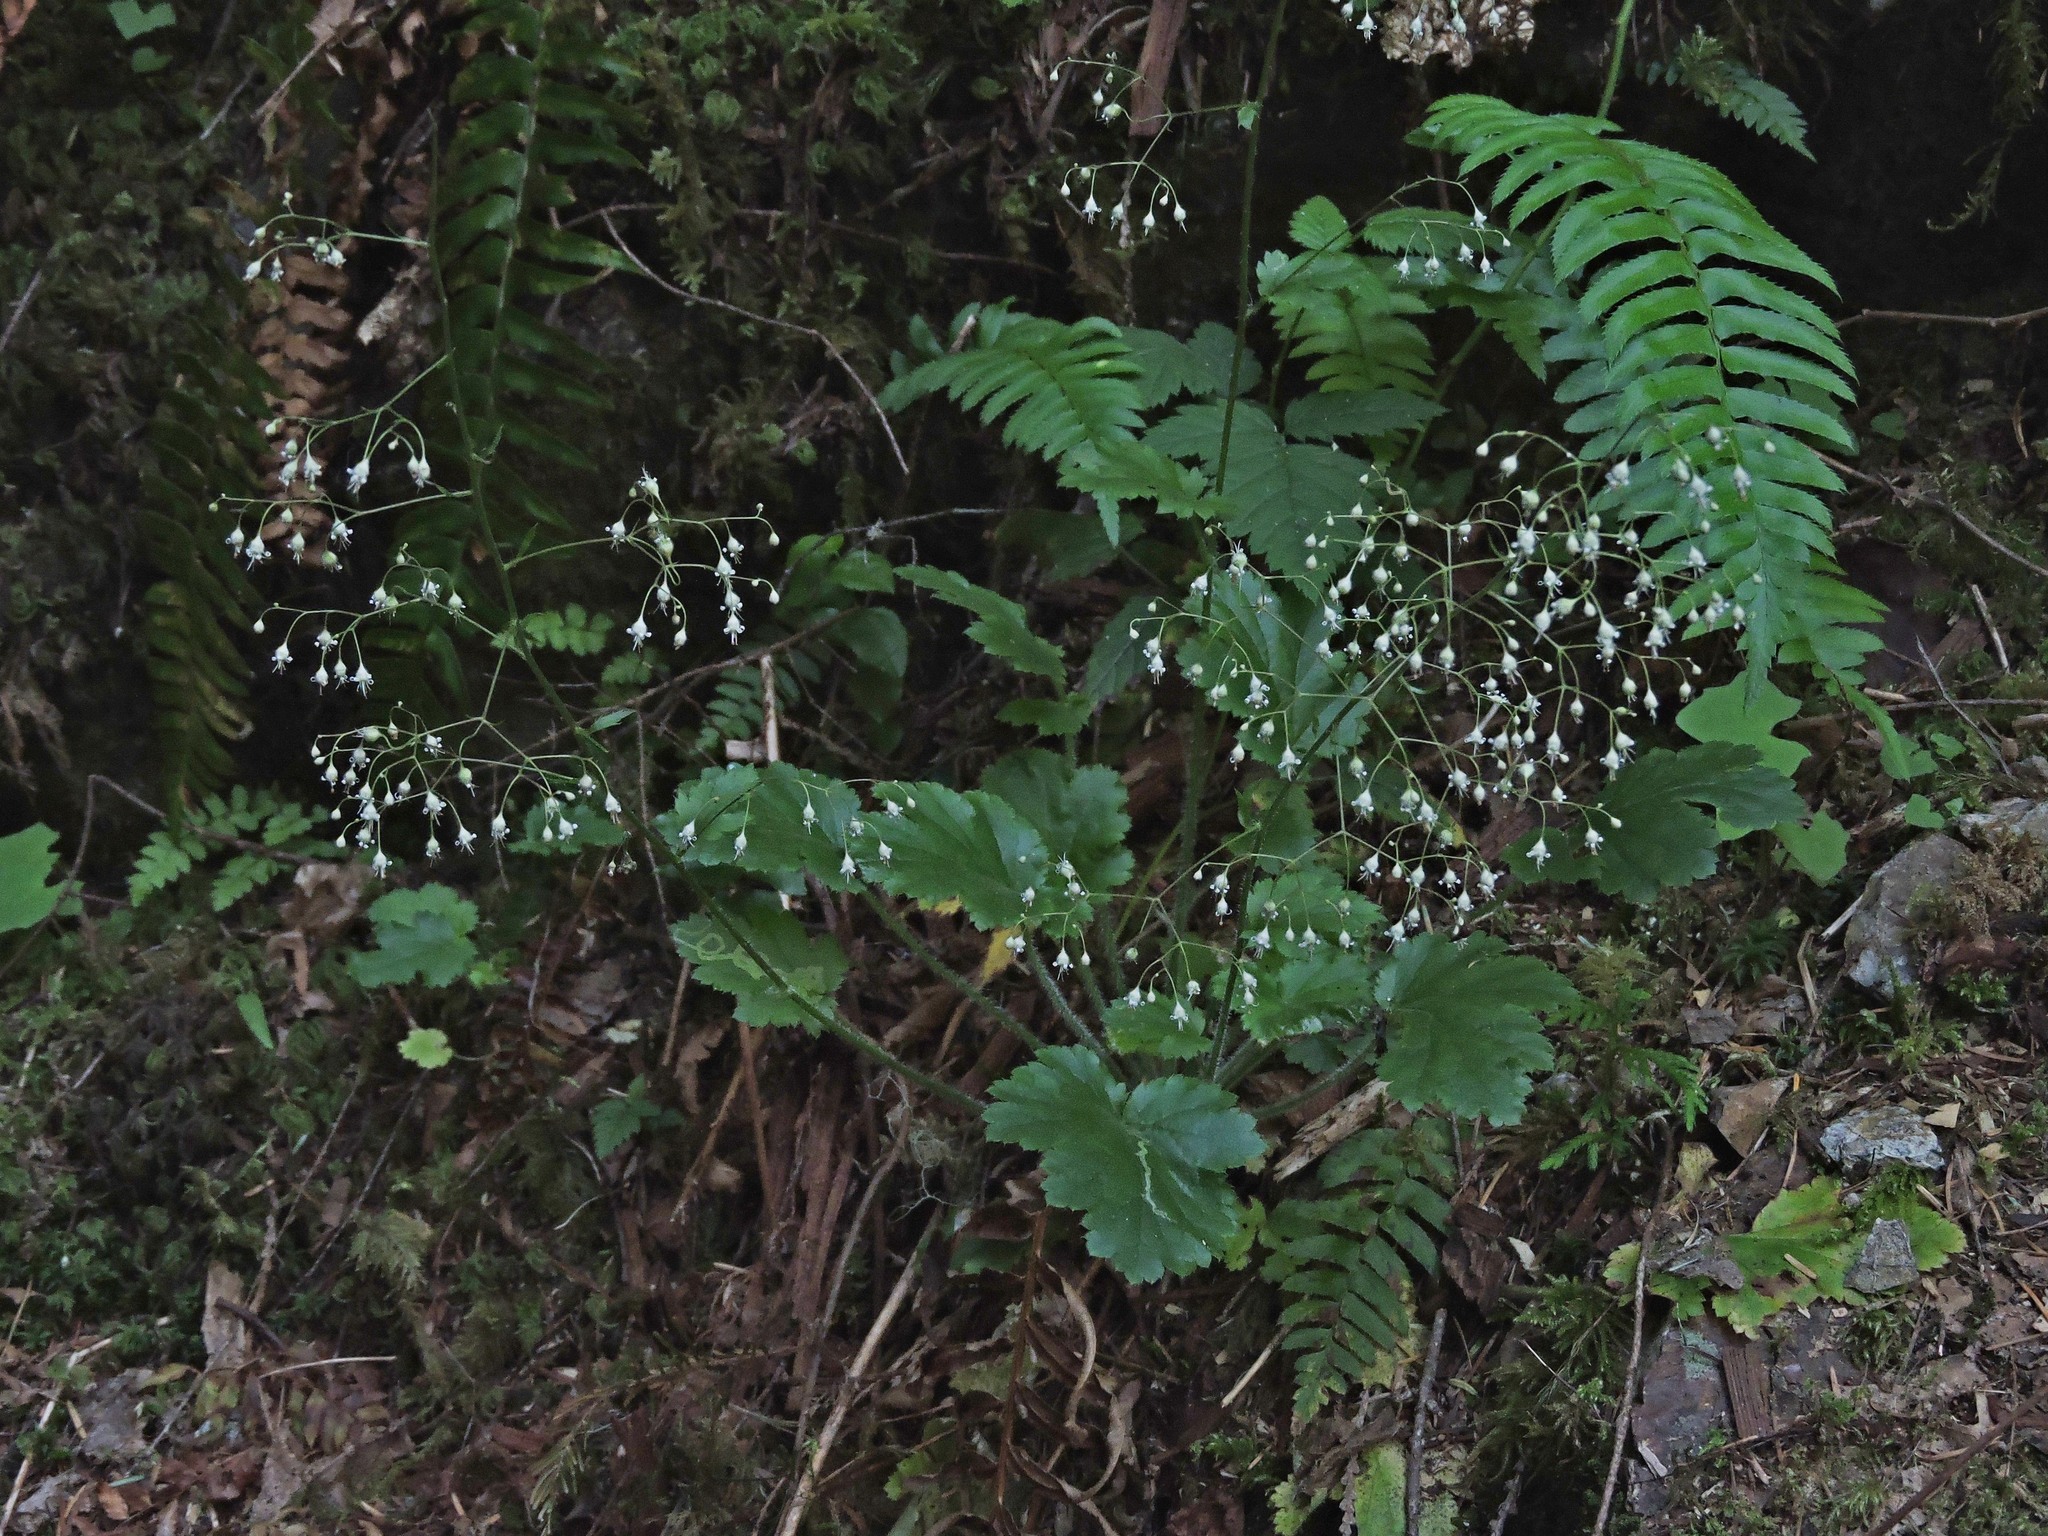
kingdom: Plantae
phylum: Tracheophyta
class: Magnoliopsida
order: Saxifragales
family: Saxifragaceae
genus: Heuchera
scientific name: Heuchera micrantha
